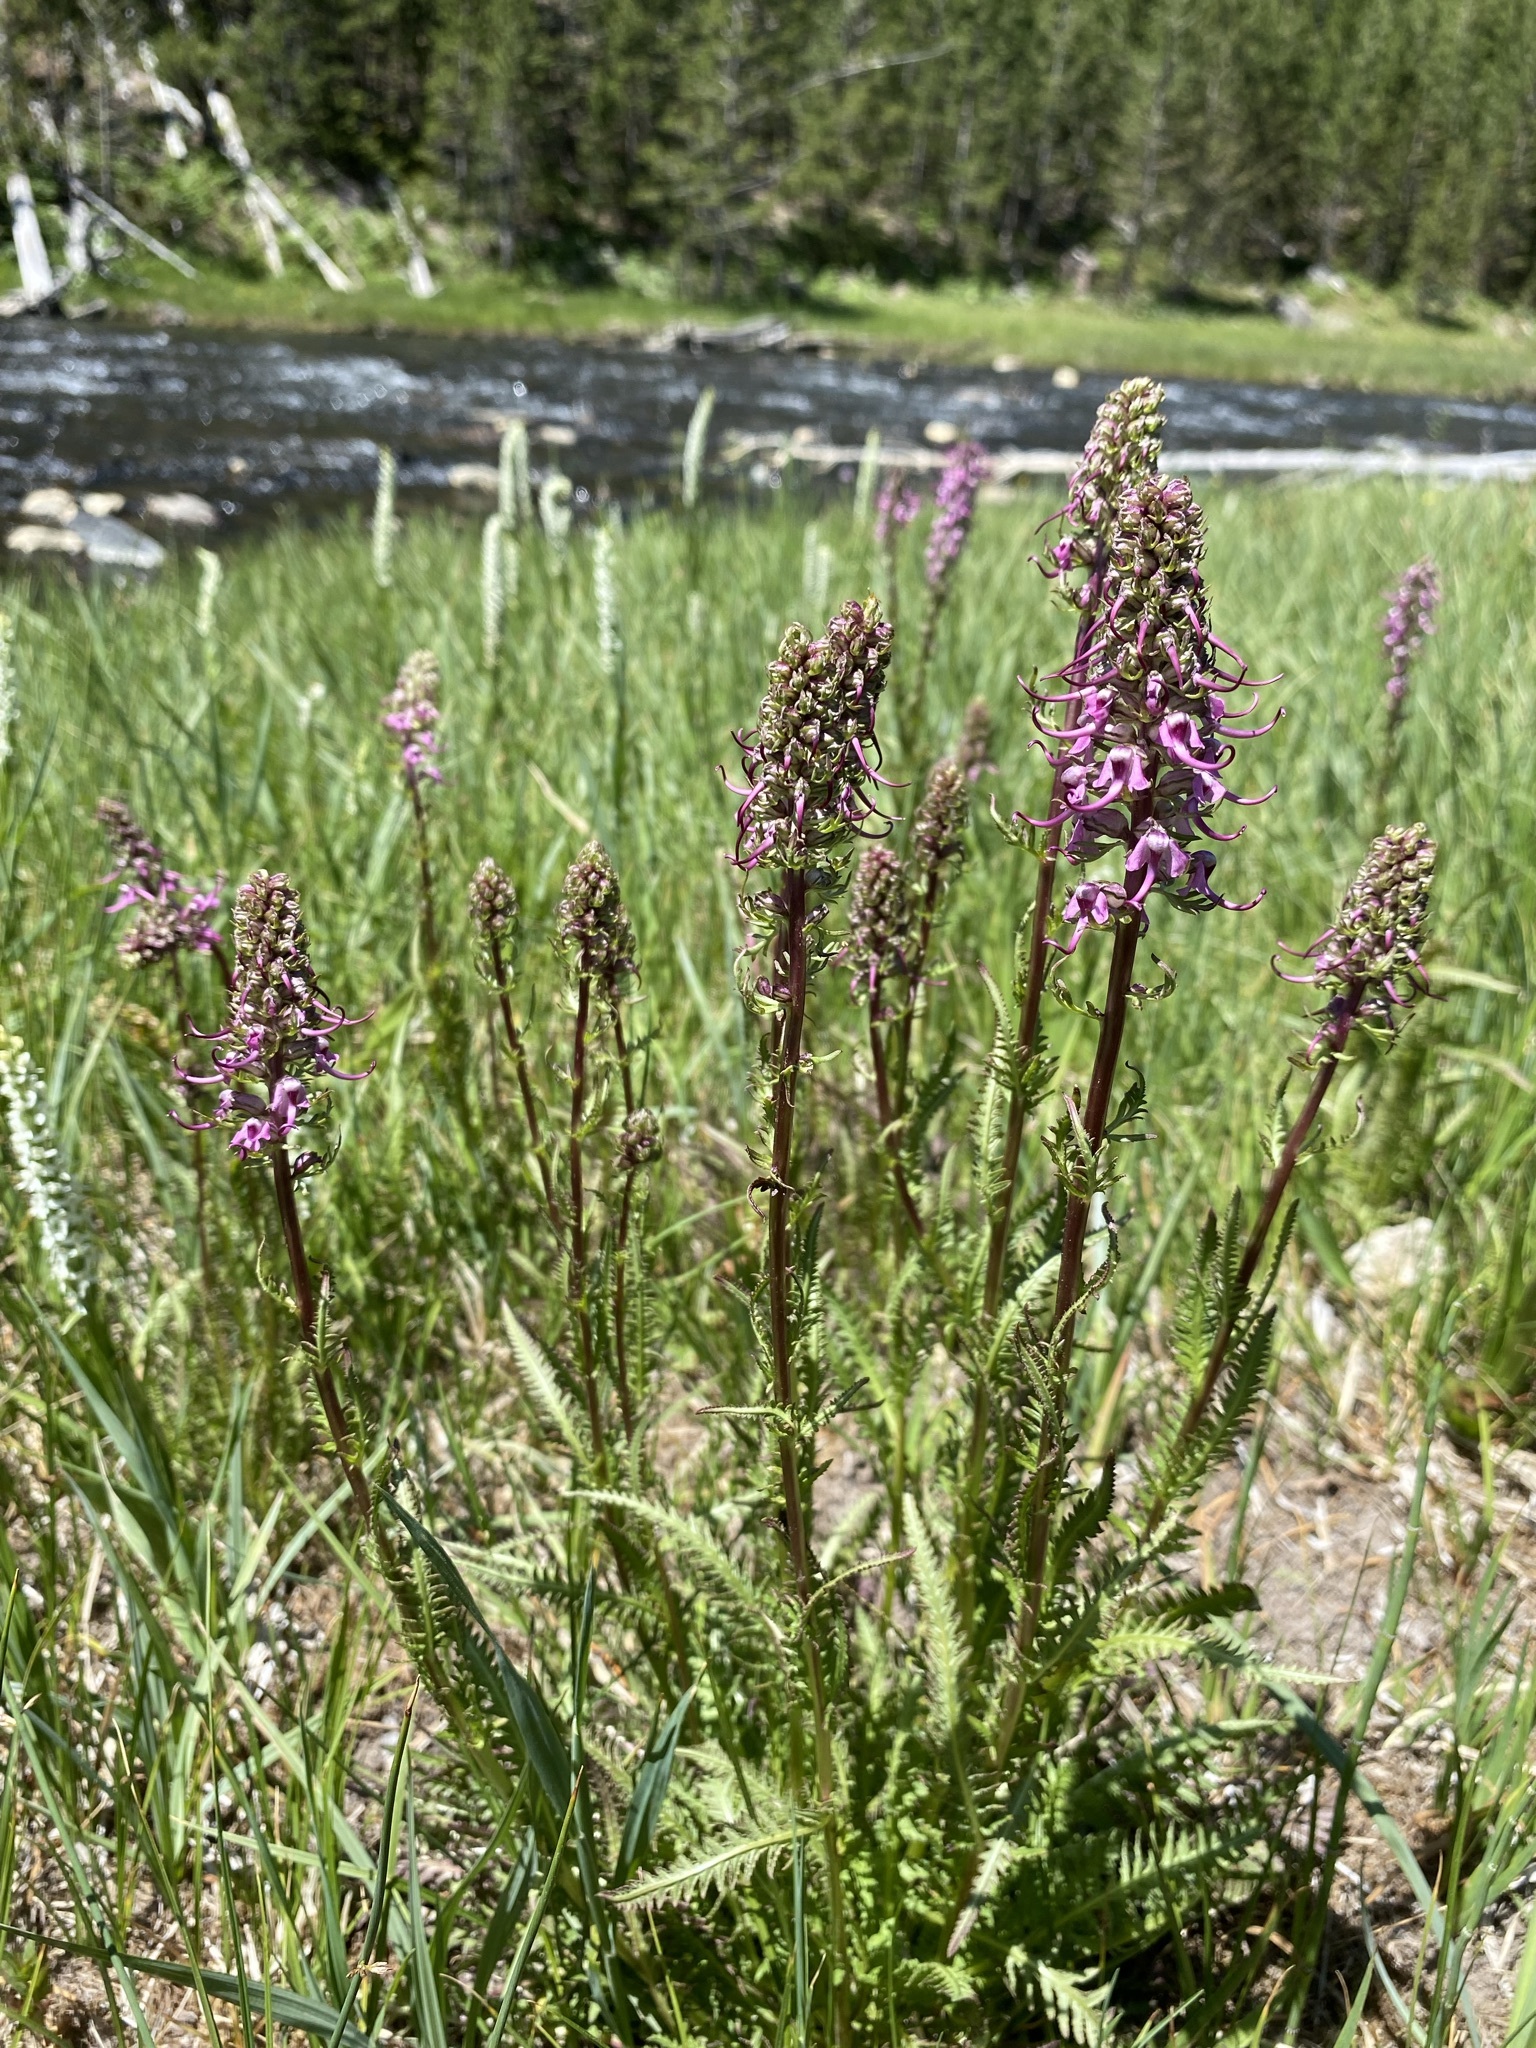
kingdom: Plantae
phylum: Tracheophyta
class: Magnoliopsida
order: Lamiales
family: Orobanchaceae
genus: Pedicularis
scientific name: Pedicularis groenlandica
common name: Elephant's-head
